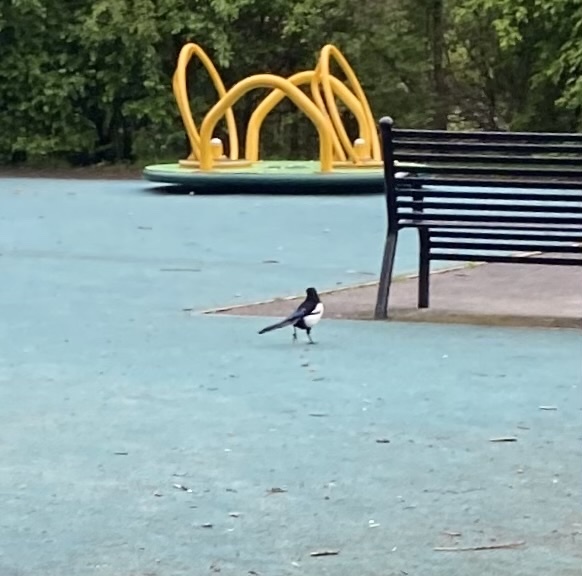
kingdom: Animalia
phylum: Chordata
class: Aves
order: Passeriformes
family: Corvidae
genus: Pica
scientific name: Pica pica
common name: Eurasian magpie
